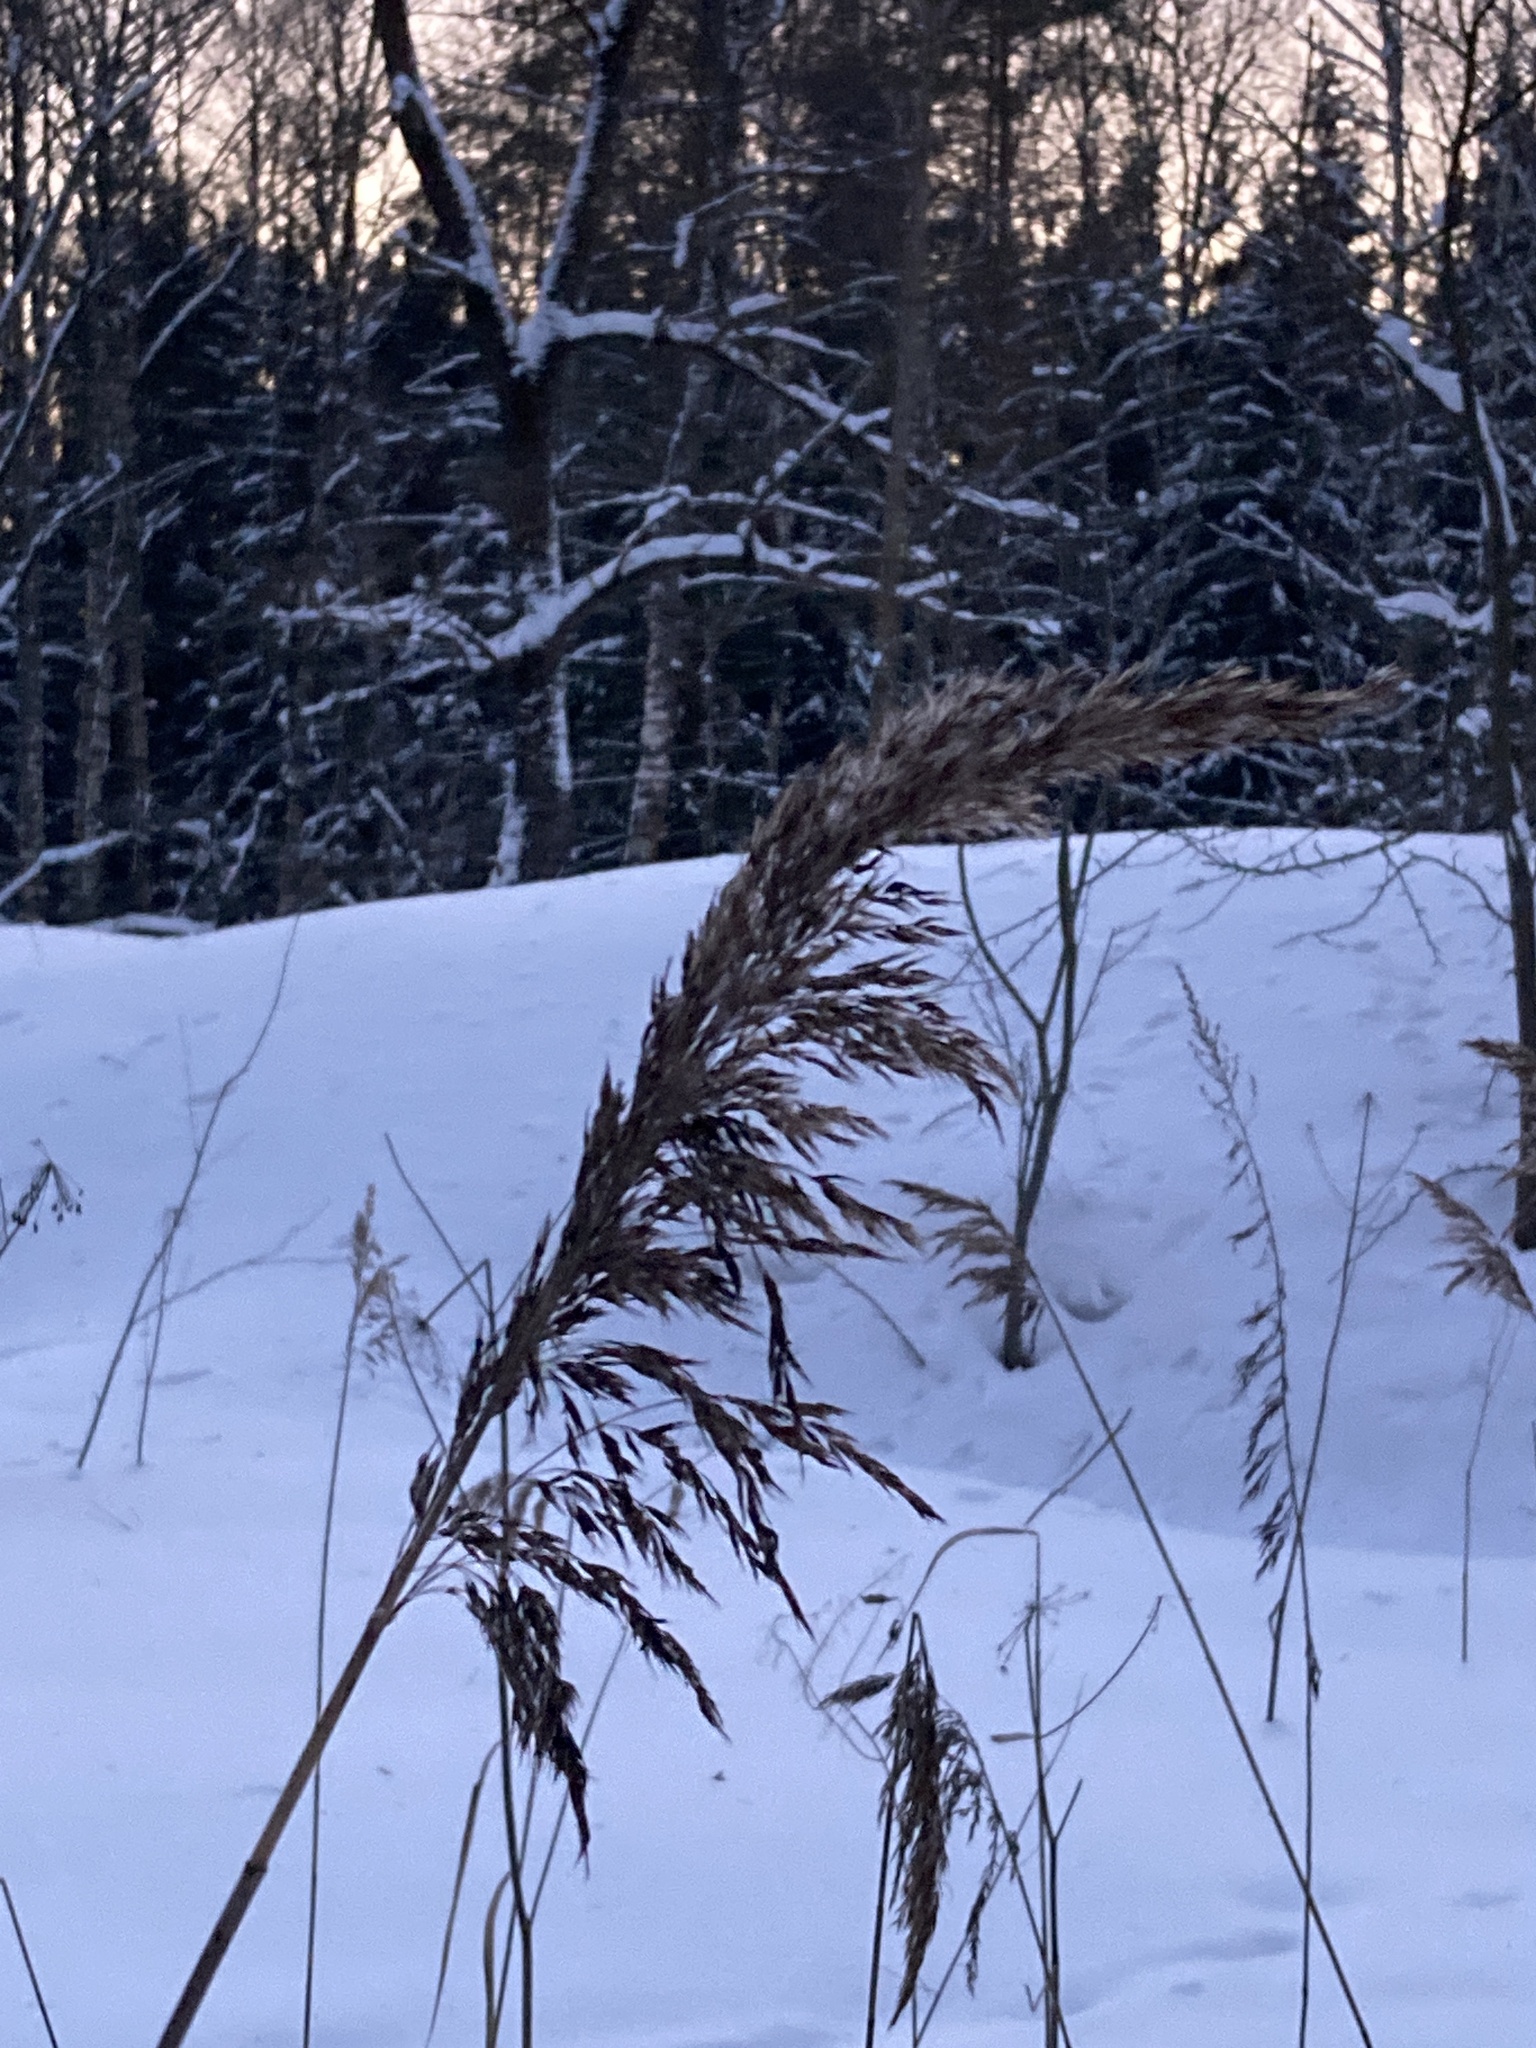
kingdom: Plantae
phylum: Tracheophyta
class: Liliopsida
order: Poales
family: Poaceae
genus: Phragmites
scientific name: Phragmites australis
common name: Common reed
